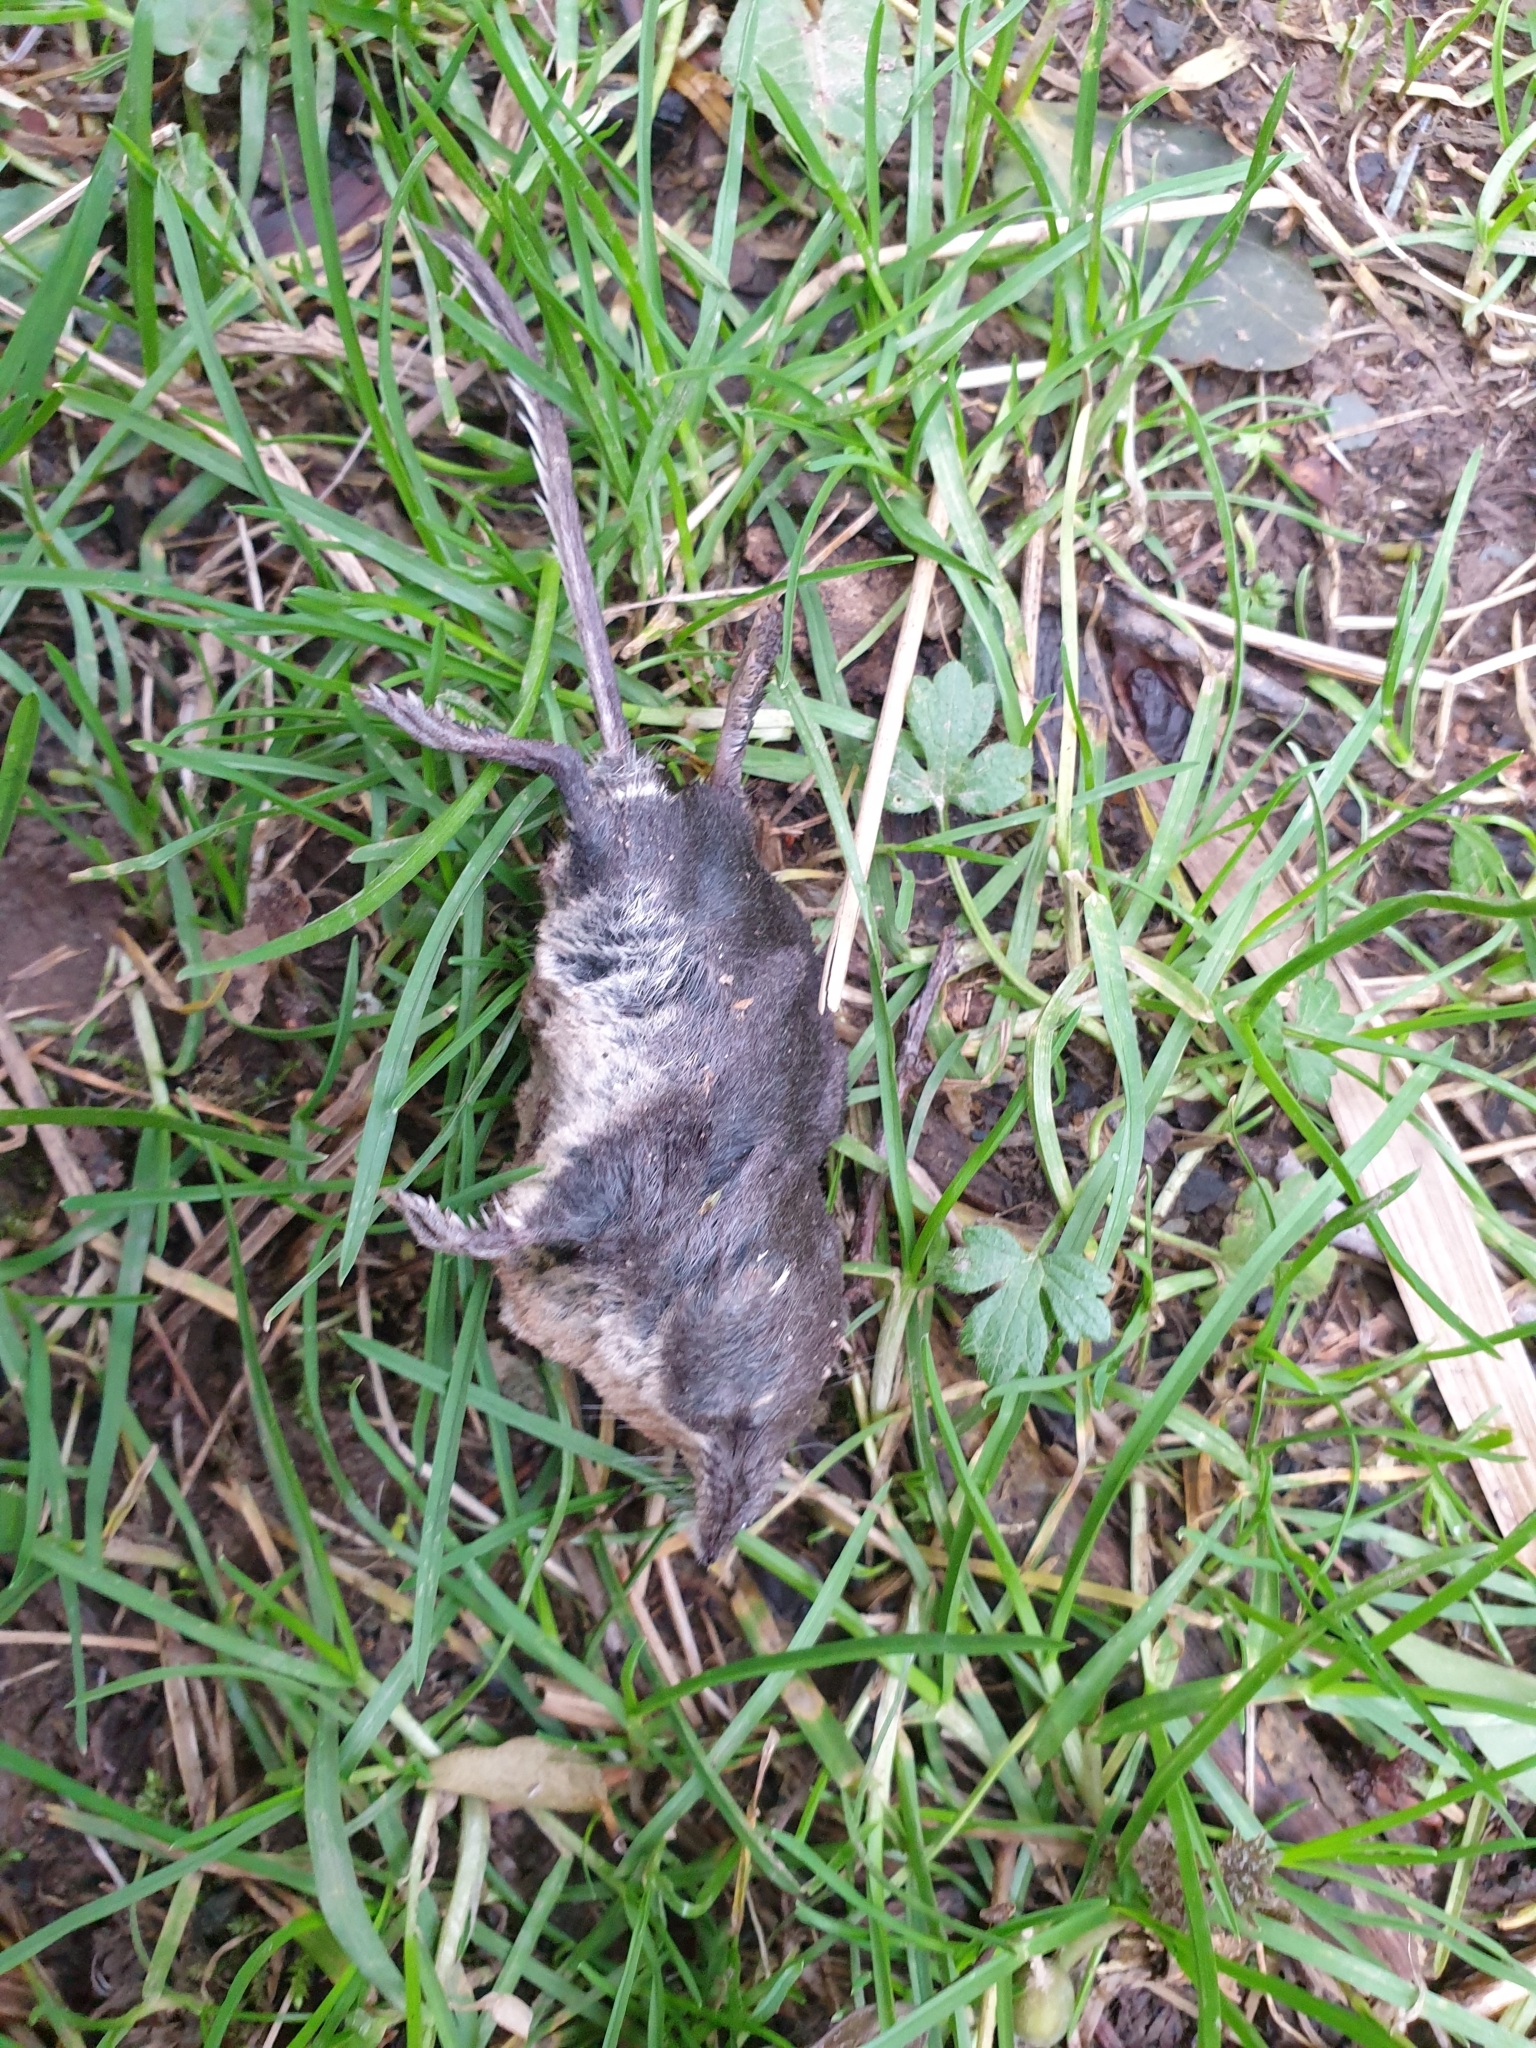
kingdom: Animalia
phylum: Chordata
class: Mammalia
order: Soricomorpha
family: Soricidae
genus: Neomys
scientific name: Neomys fodiens
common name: Eurasian water shrew
